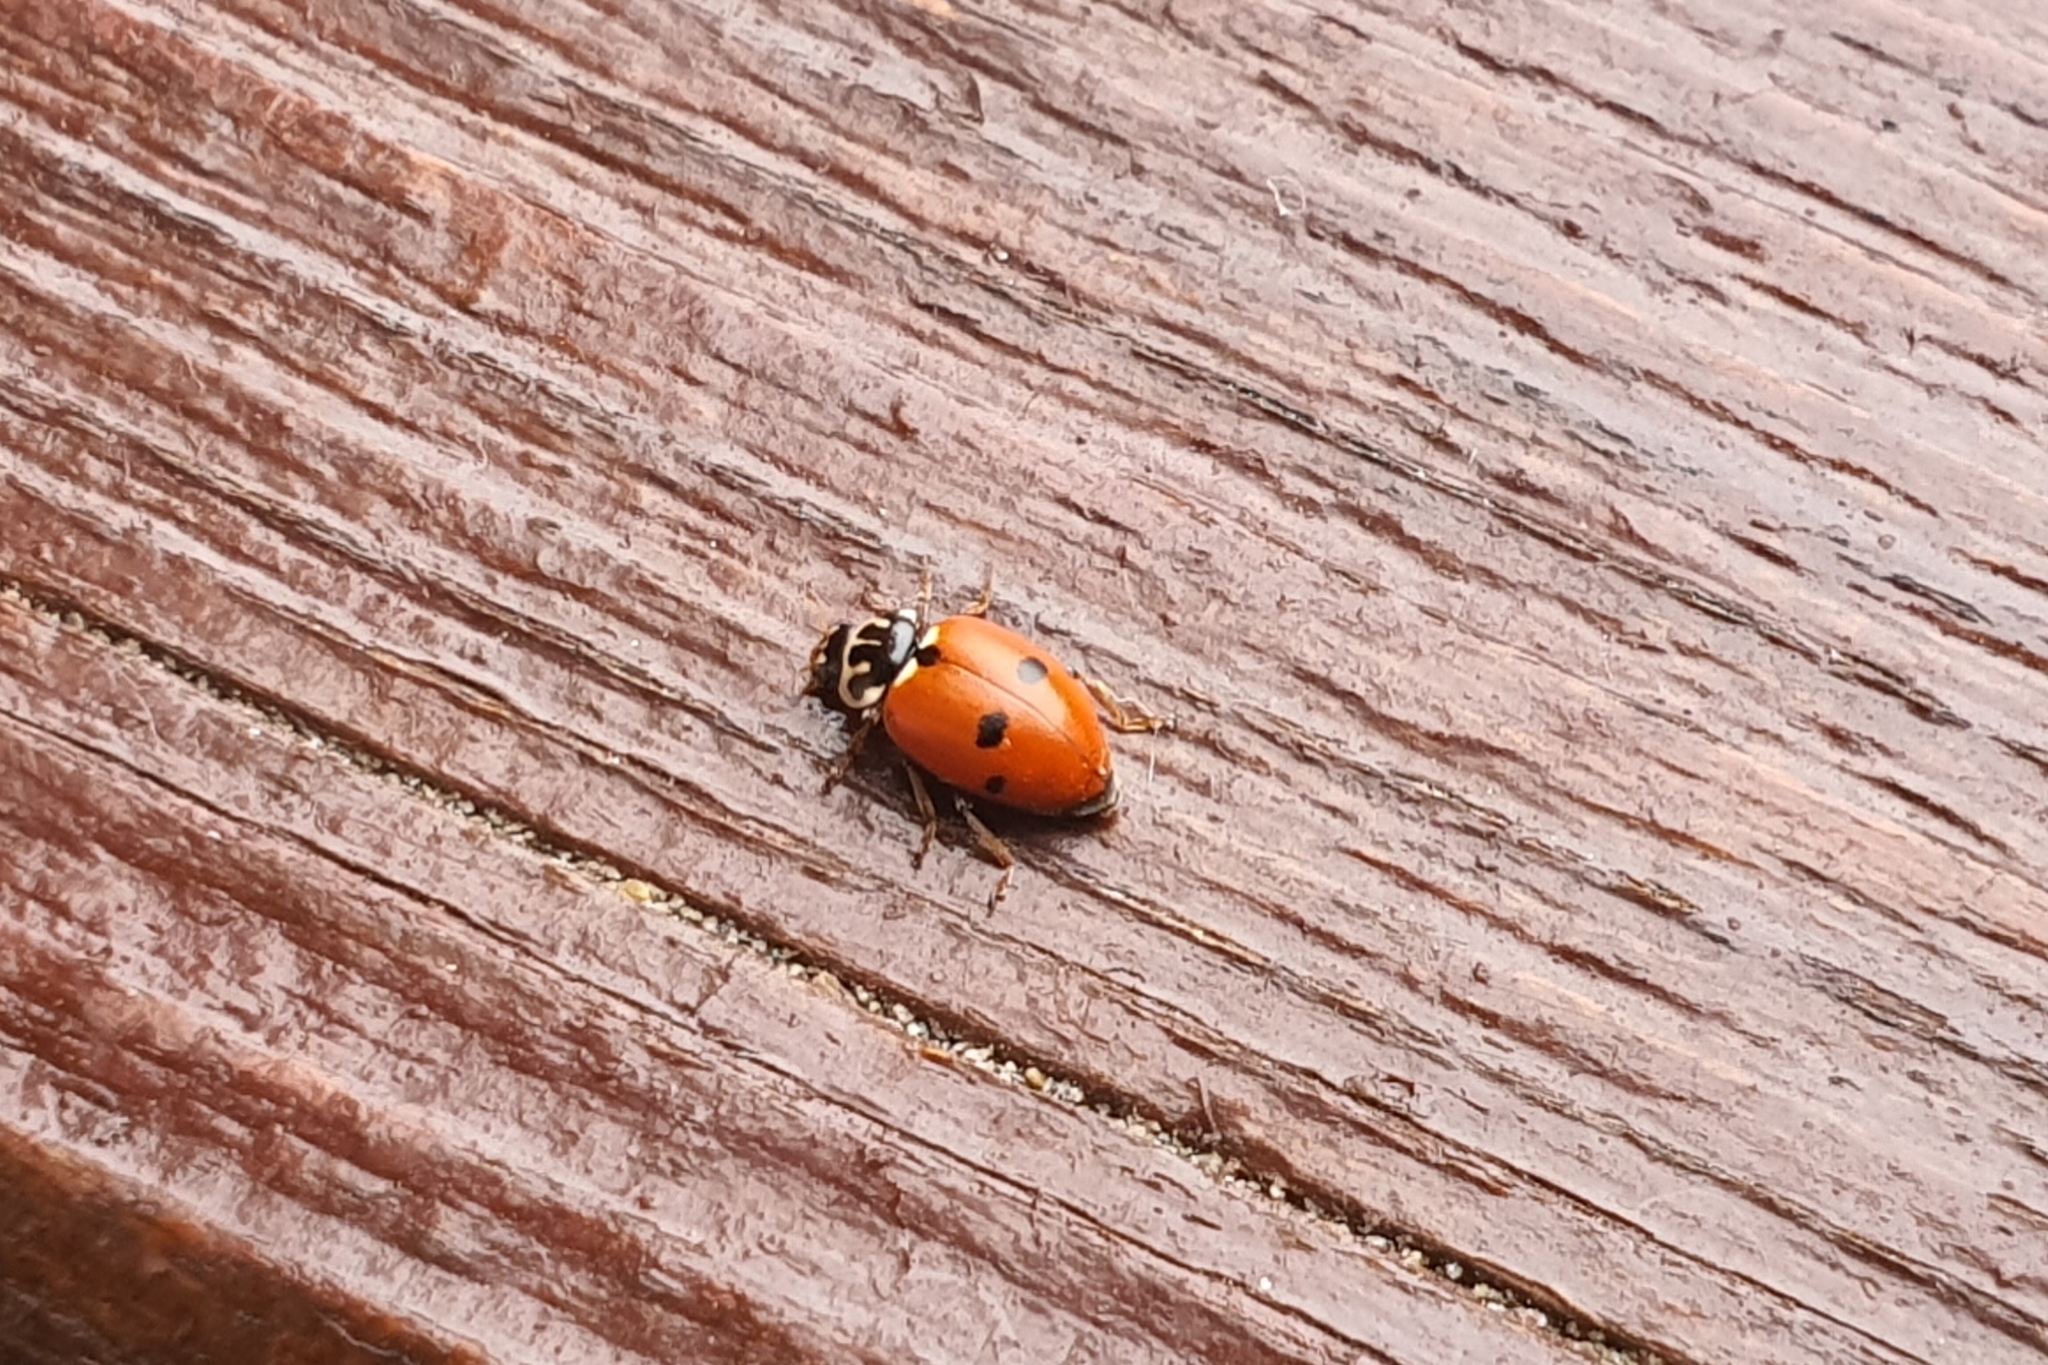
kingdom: Animalia
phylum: Arthropoda
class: Insecta
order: Coleoptera
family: Coccinellidae
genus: Hippodamia
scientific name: Hippodamia variegata
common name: Ladybird beetle
